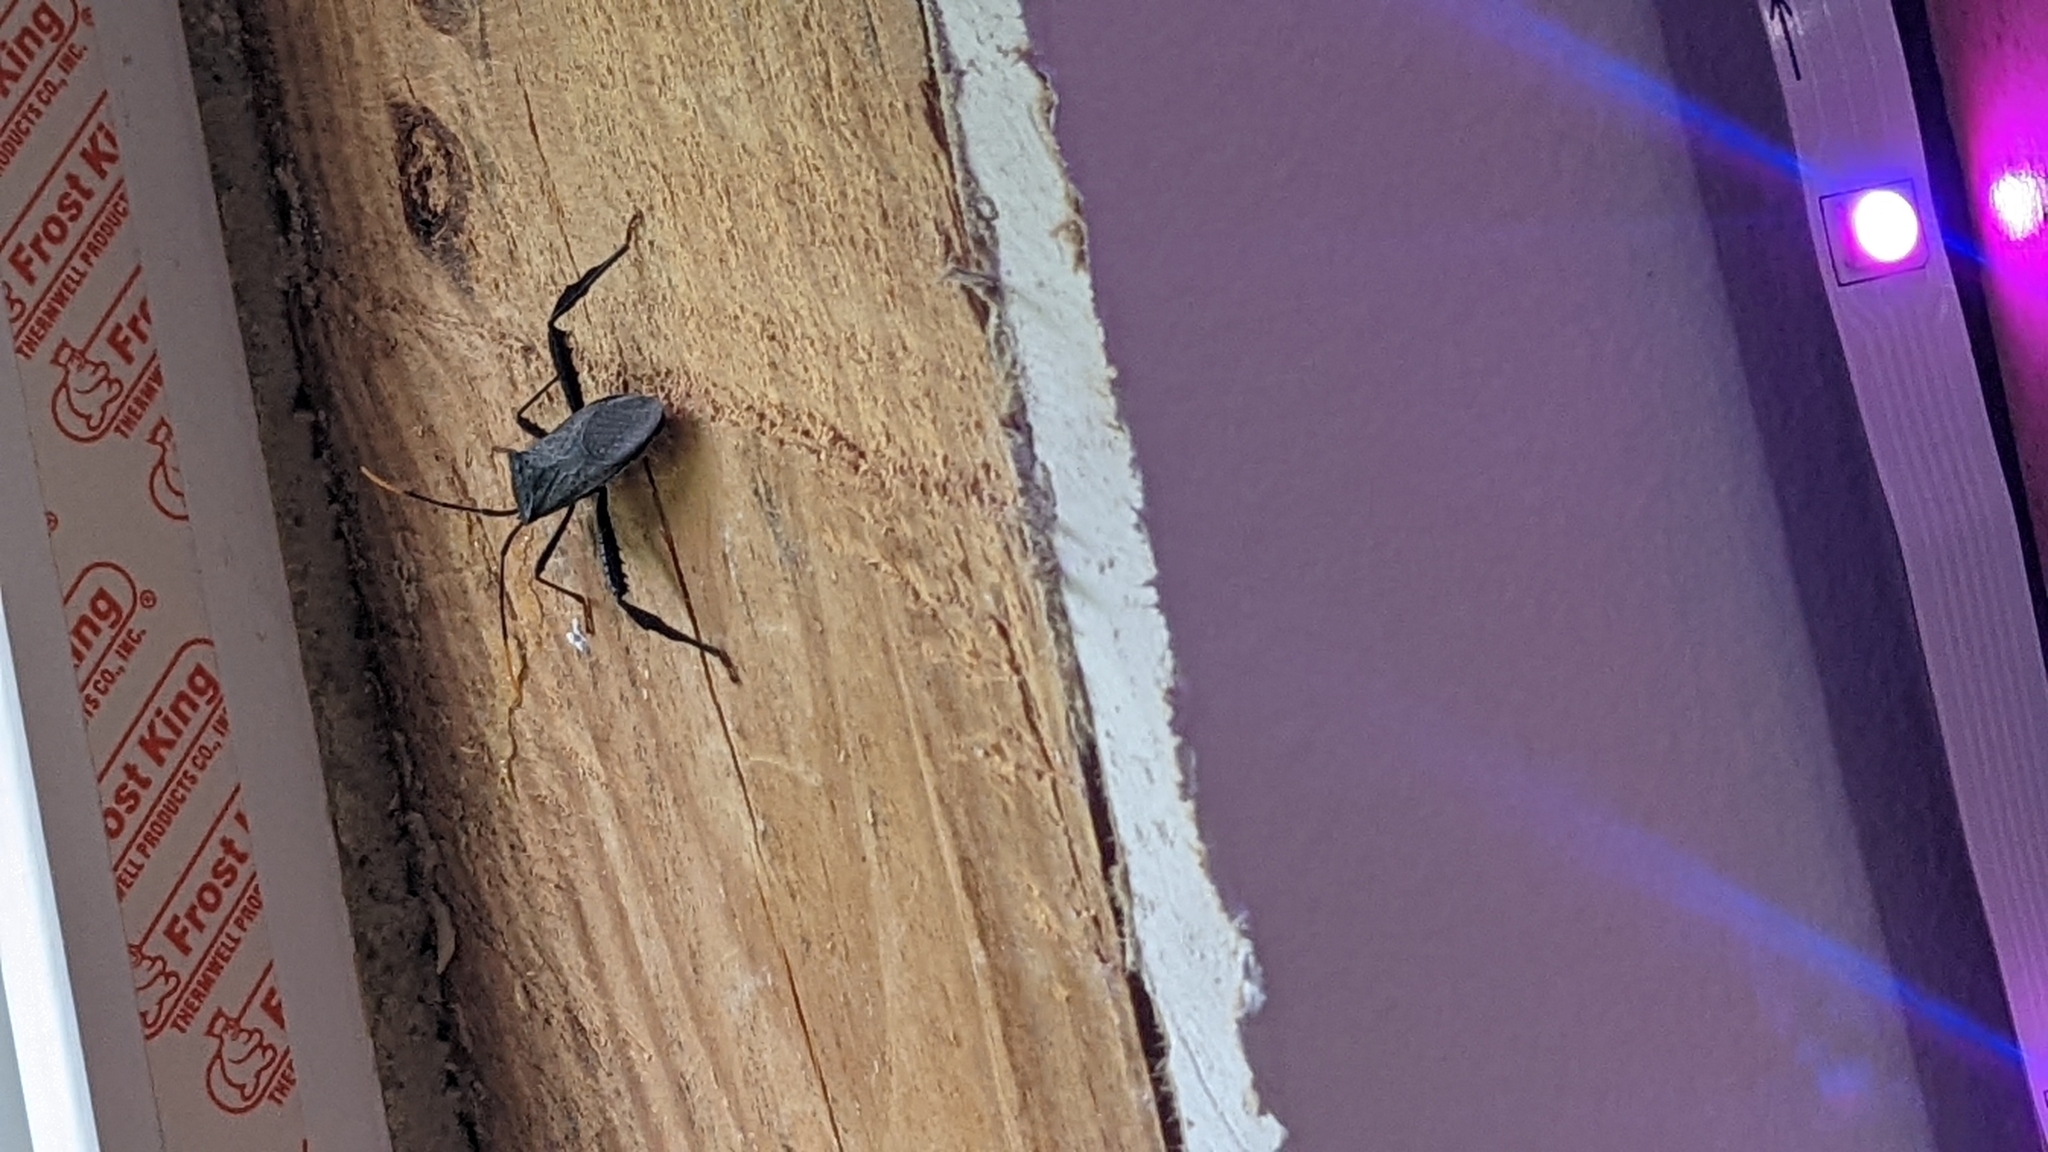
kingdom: Animalia
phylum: Arthropoda
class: Insecta
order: Hemiptera
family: Coreidae
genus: Acanthocephala
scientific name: Acanthocephala terminalis
